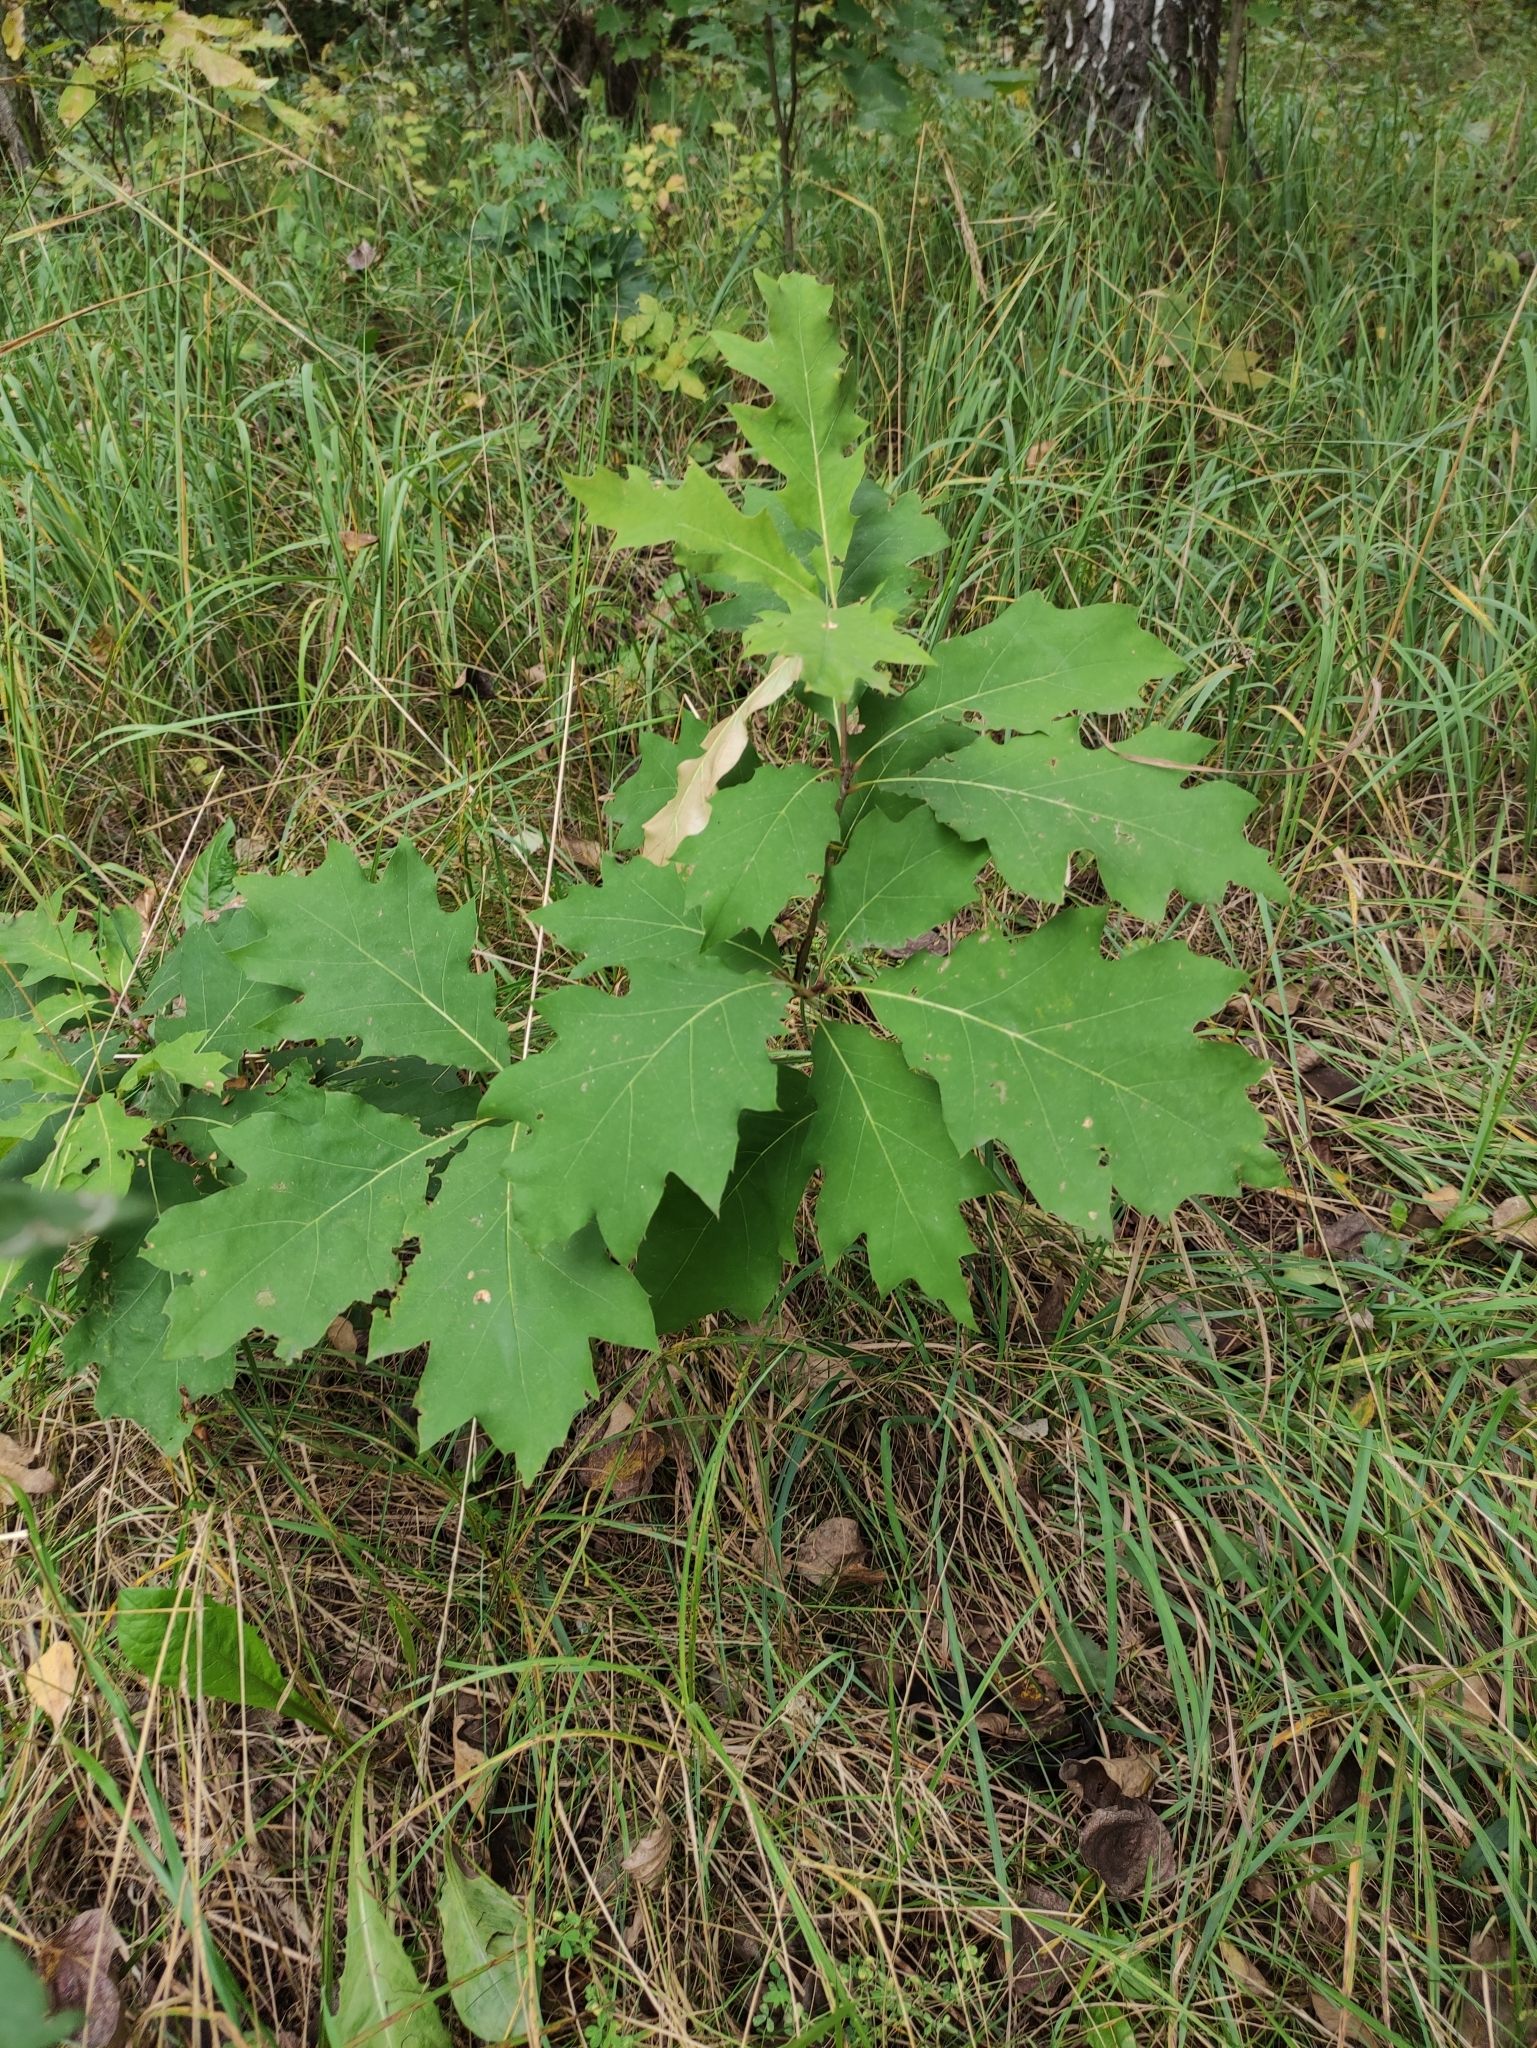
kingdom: Plantae
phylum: Tracheophyta
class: Magnoliopsida
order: Fagales
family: Fagaceae
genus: Quercus
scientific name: Quercus rubra
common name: Red oak
